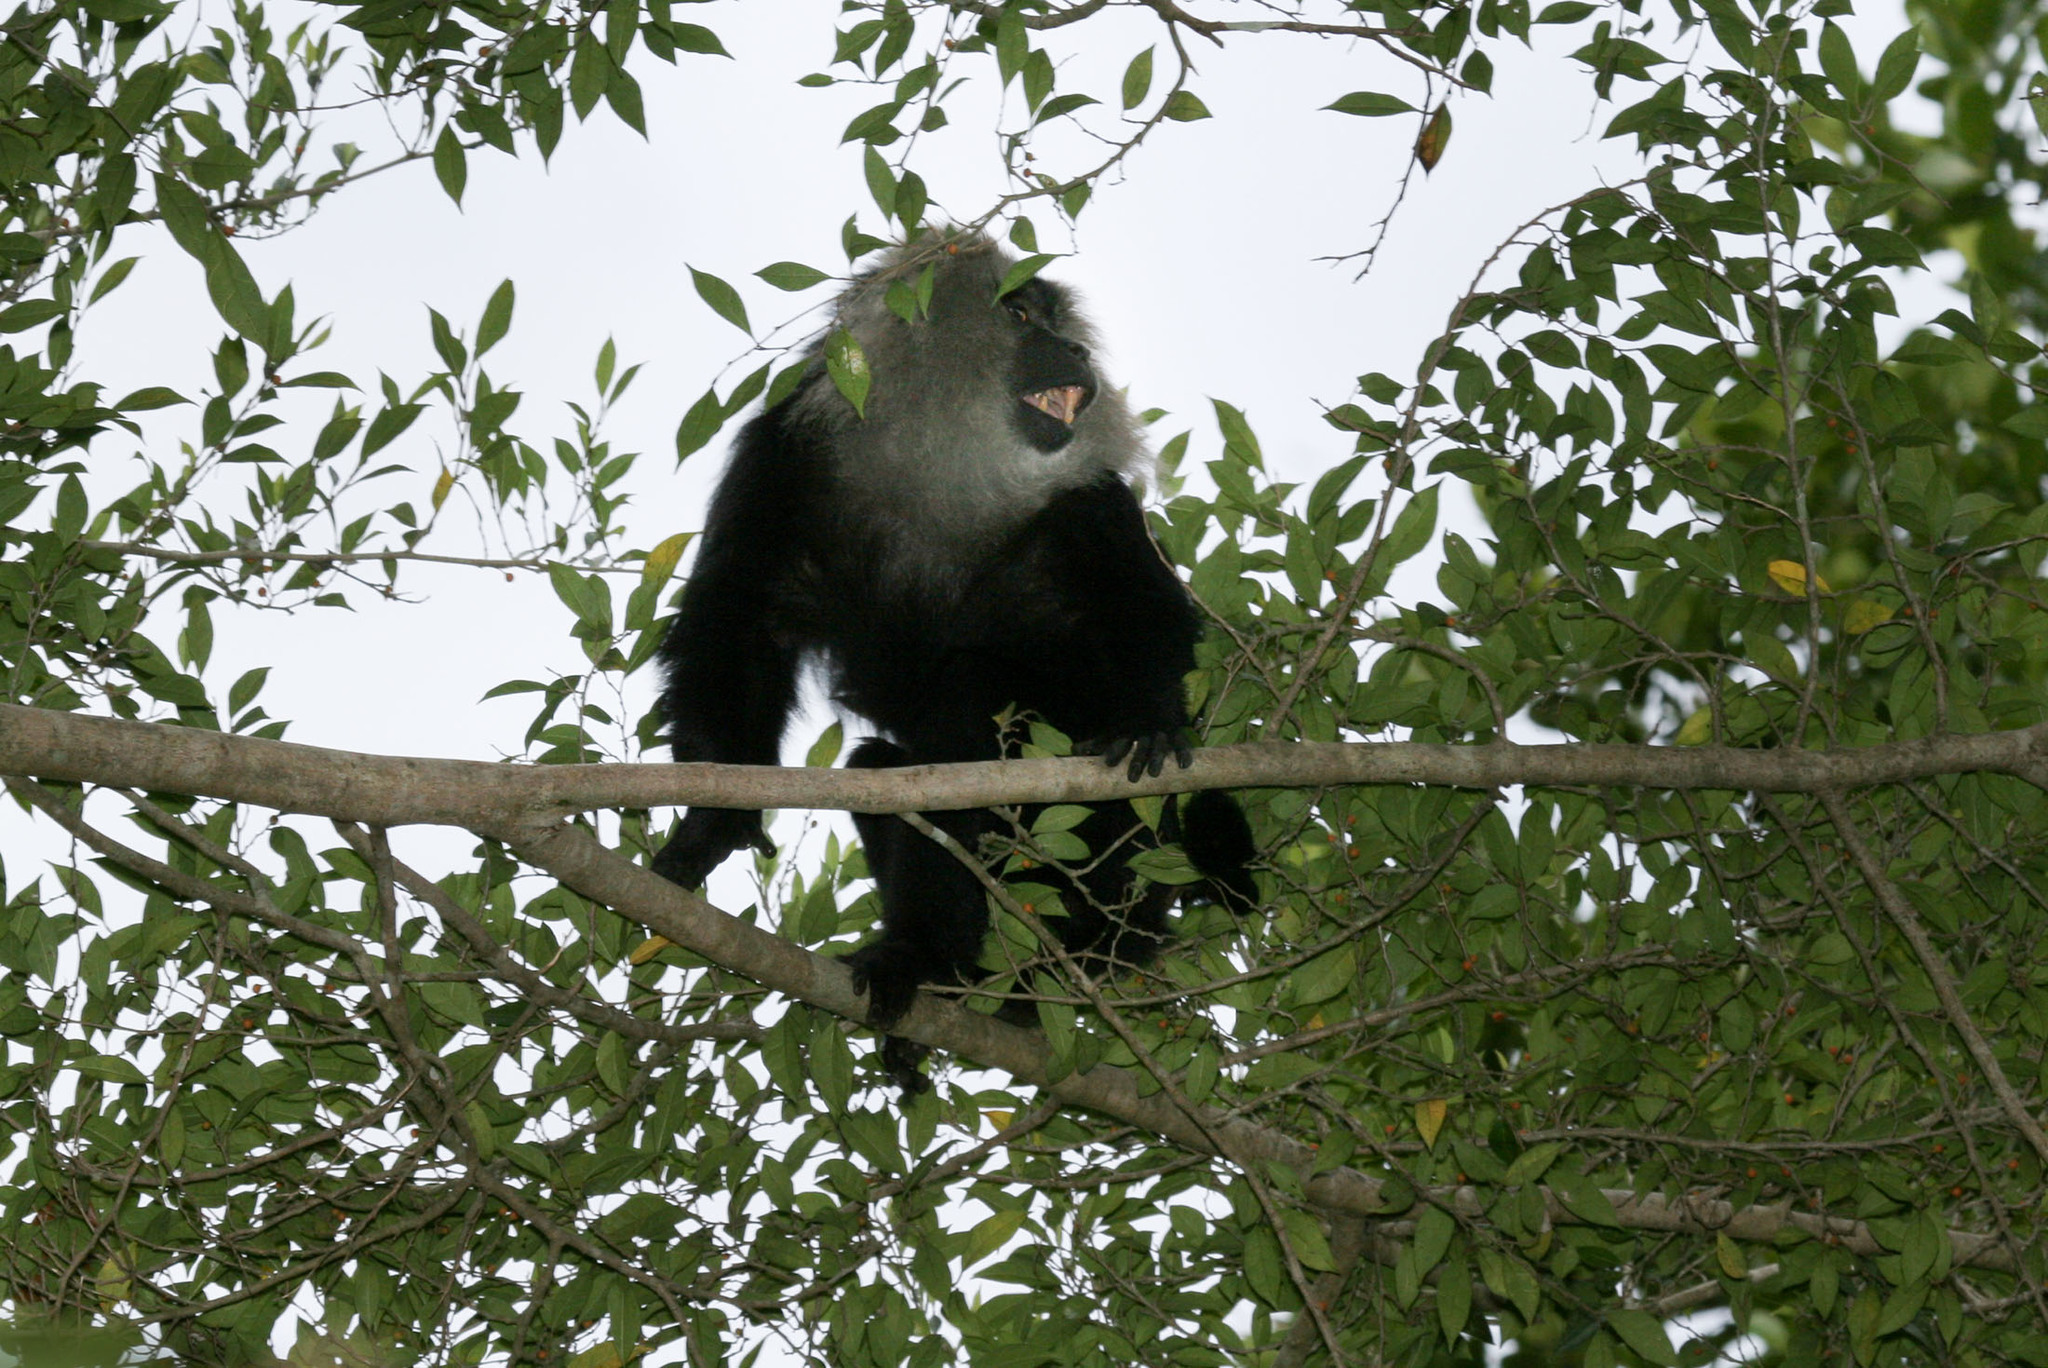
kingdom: Animalia
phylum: Chordata
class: Mammalia
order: Primates
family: Cercopithecidae
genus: Macaca
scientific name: Macaca silenus
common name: Lion-tailed macaque
